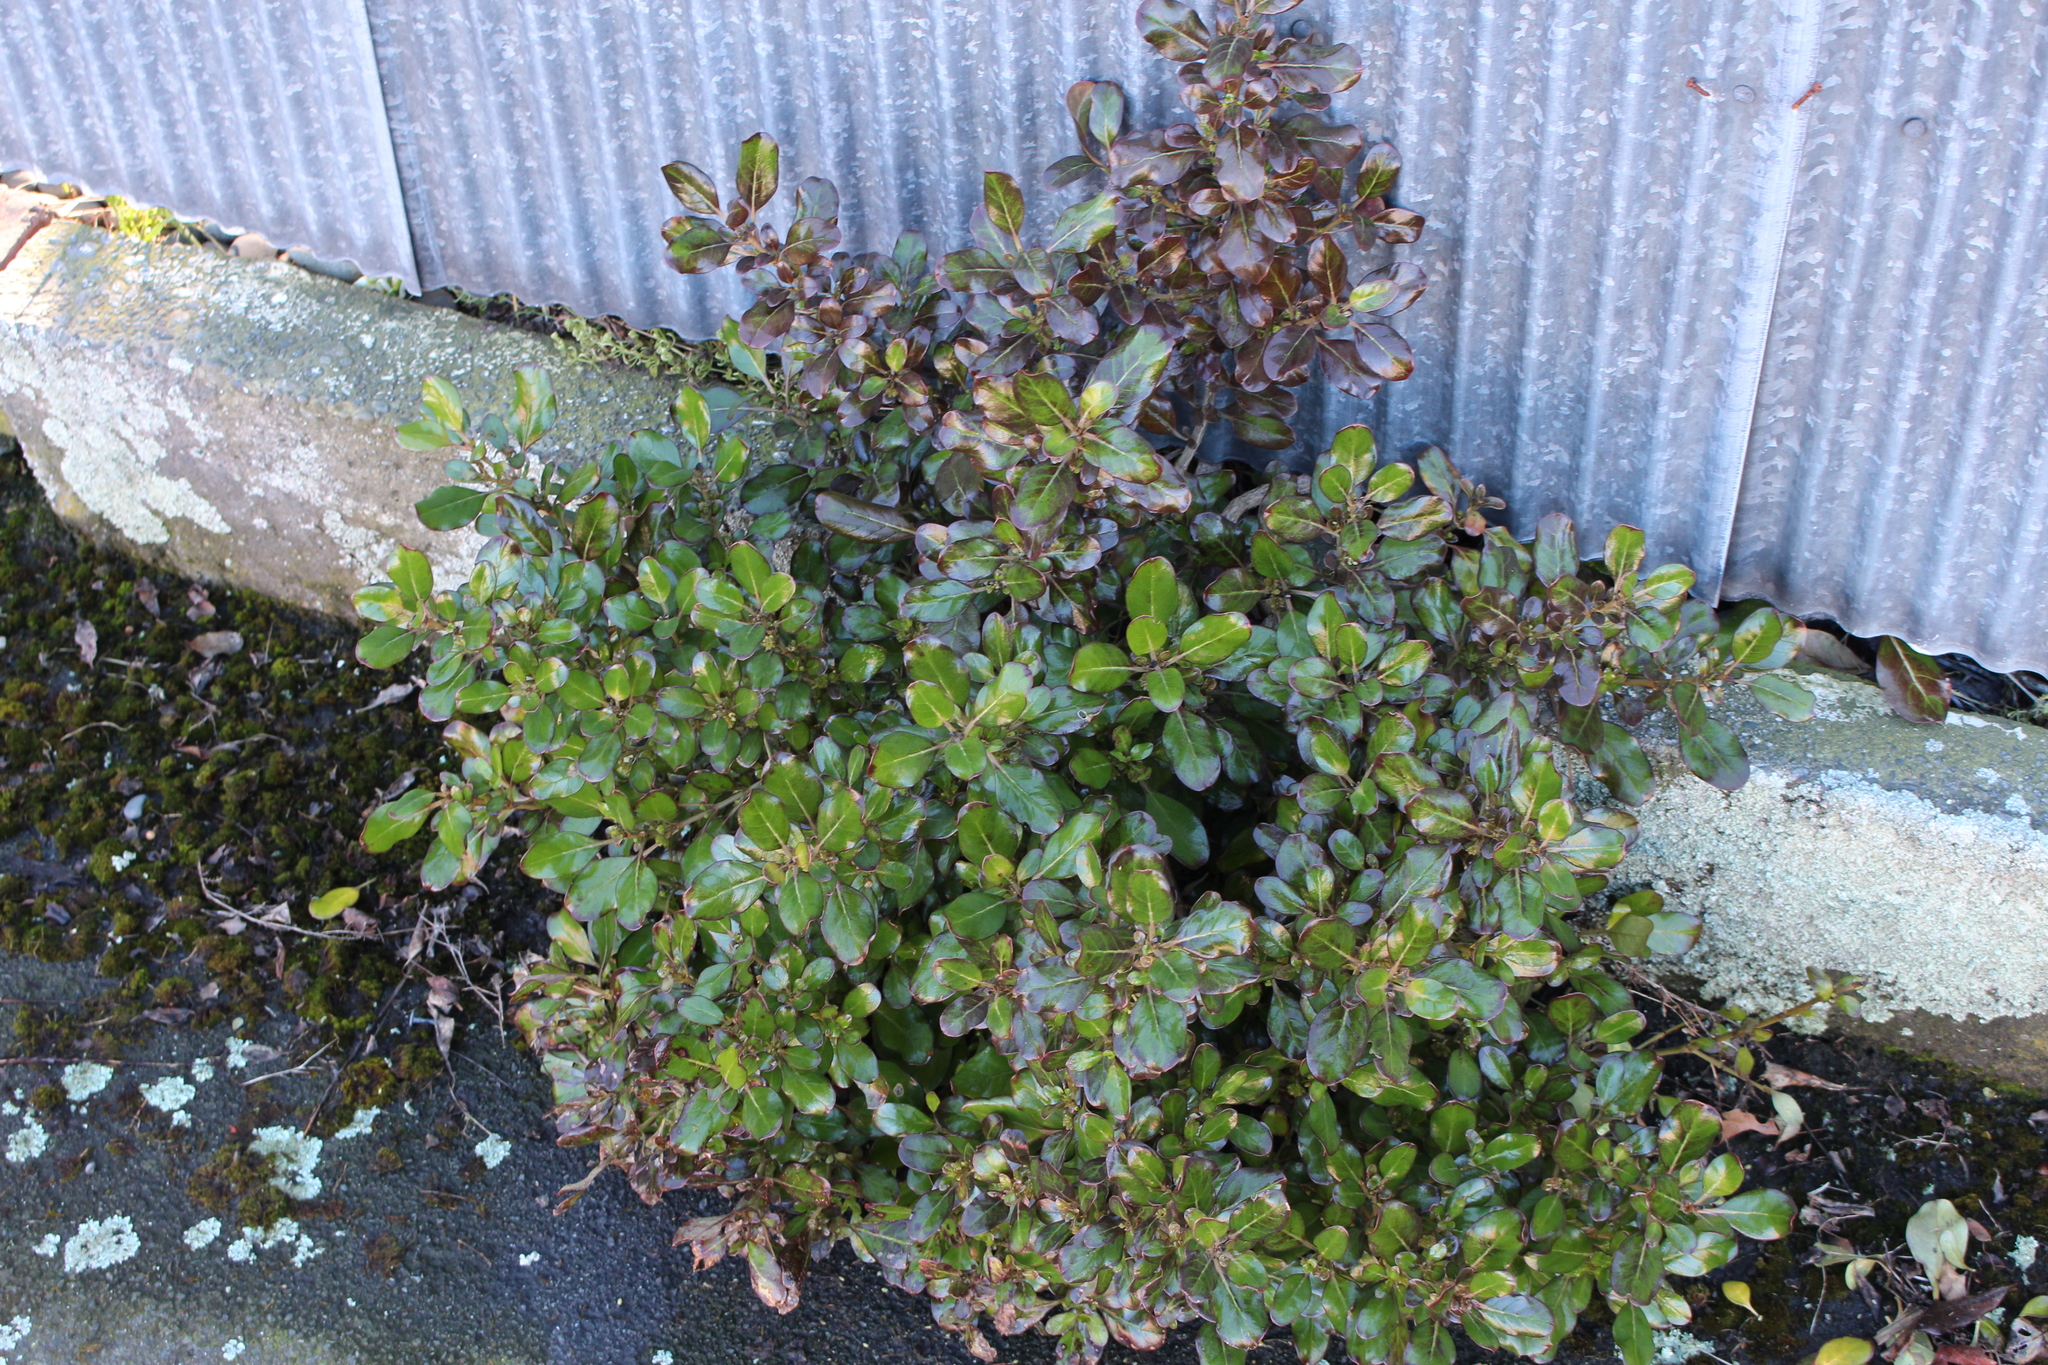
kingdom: Plantae
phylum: Tracheophyta
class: Magnoliopsida
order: Gentianales
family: Rubiaceae
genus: Coprosma
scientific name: Coprosma repens
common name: Tree bedstraw
